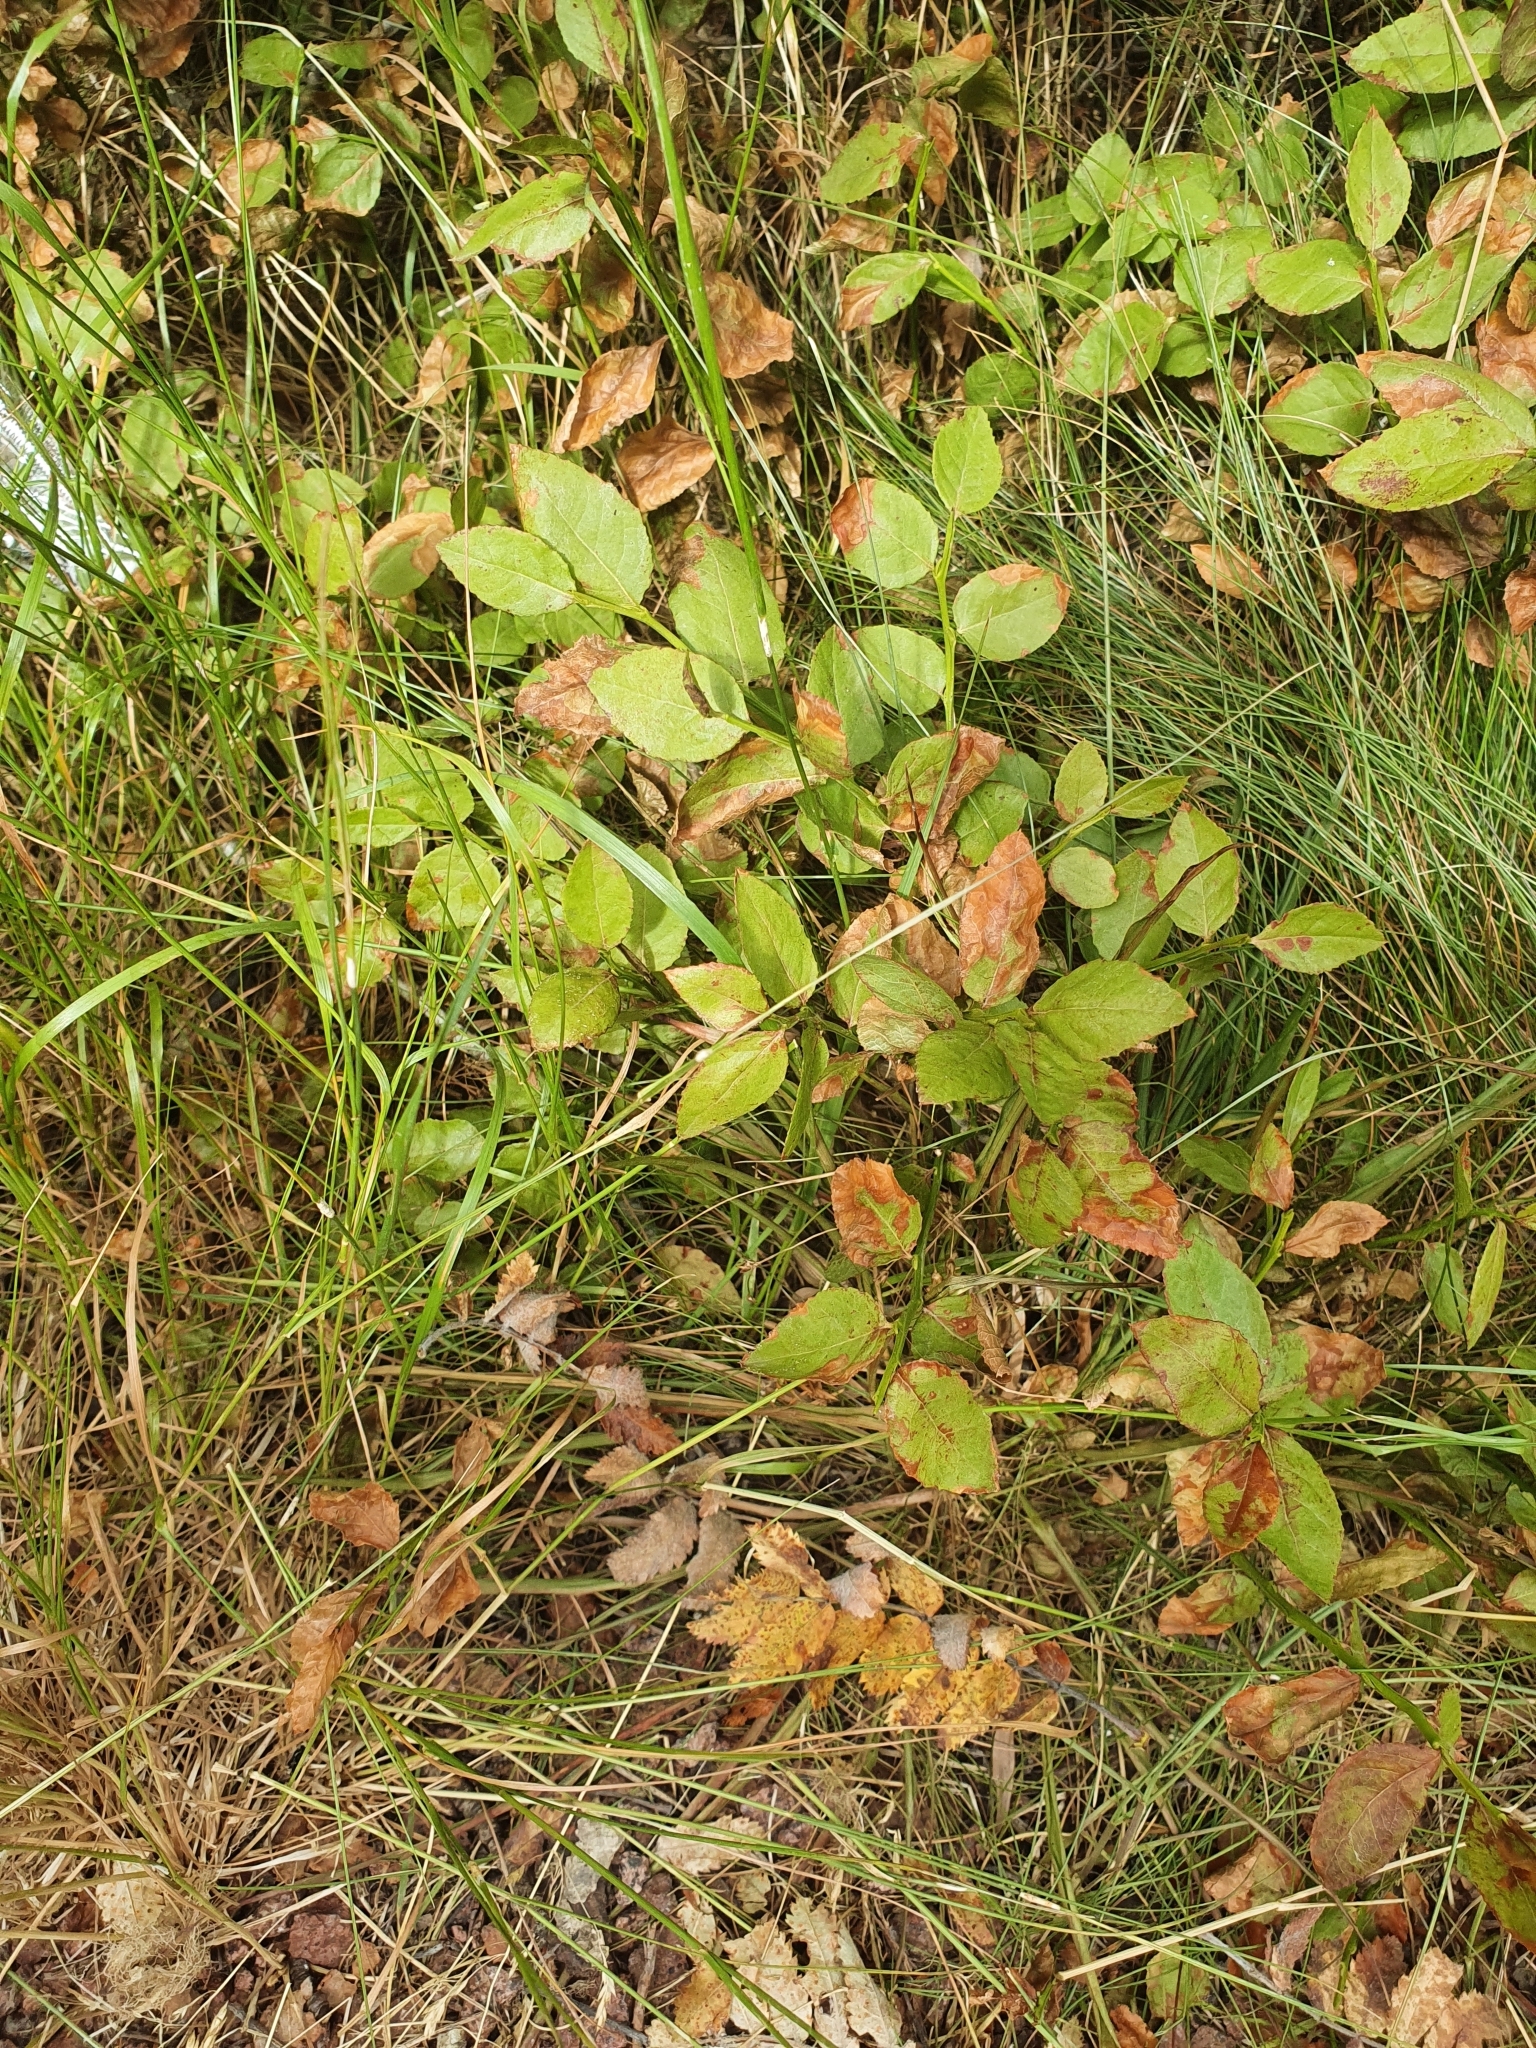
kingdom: Plantae
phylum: Tracheophyta
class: Magnoliopsida
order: Ericales
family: Ericaceae
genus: Vaccinium
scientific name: Vaccinium myrtillus
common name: Bilberry
